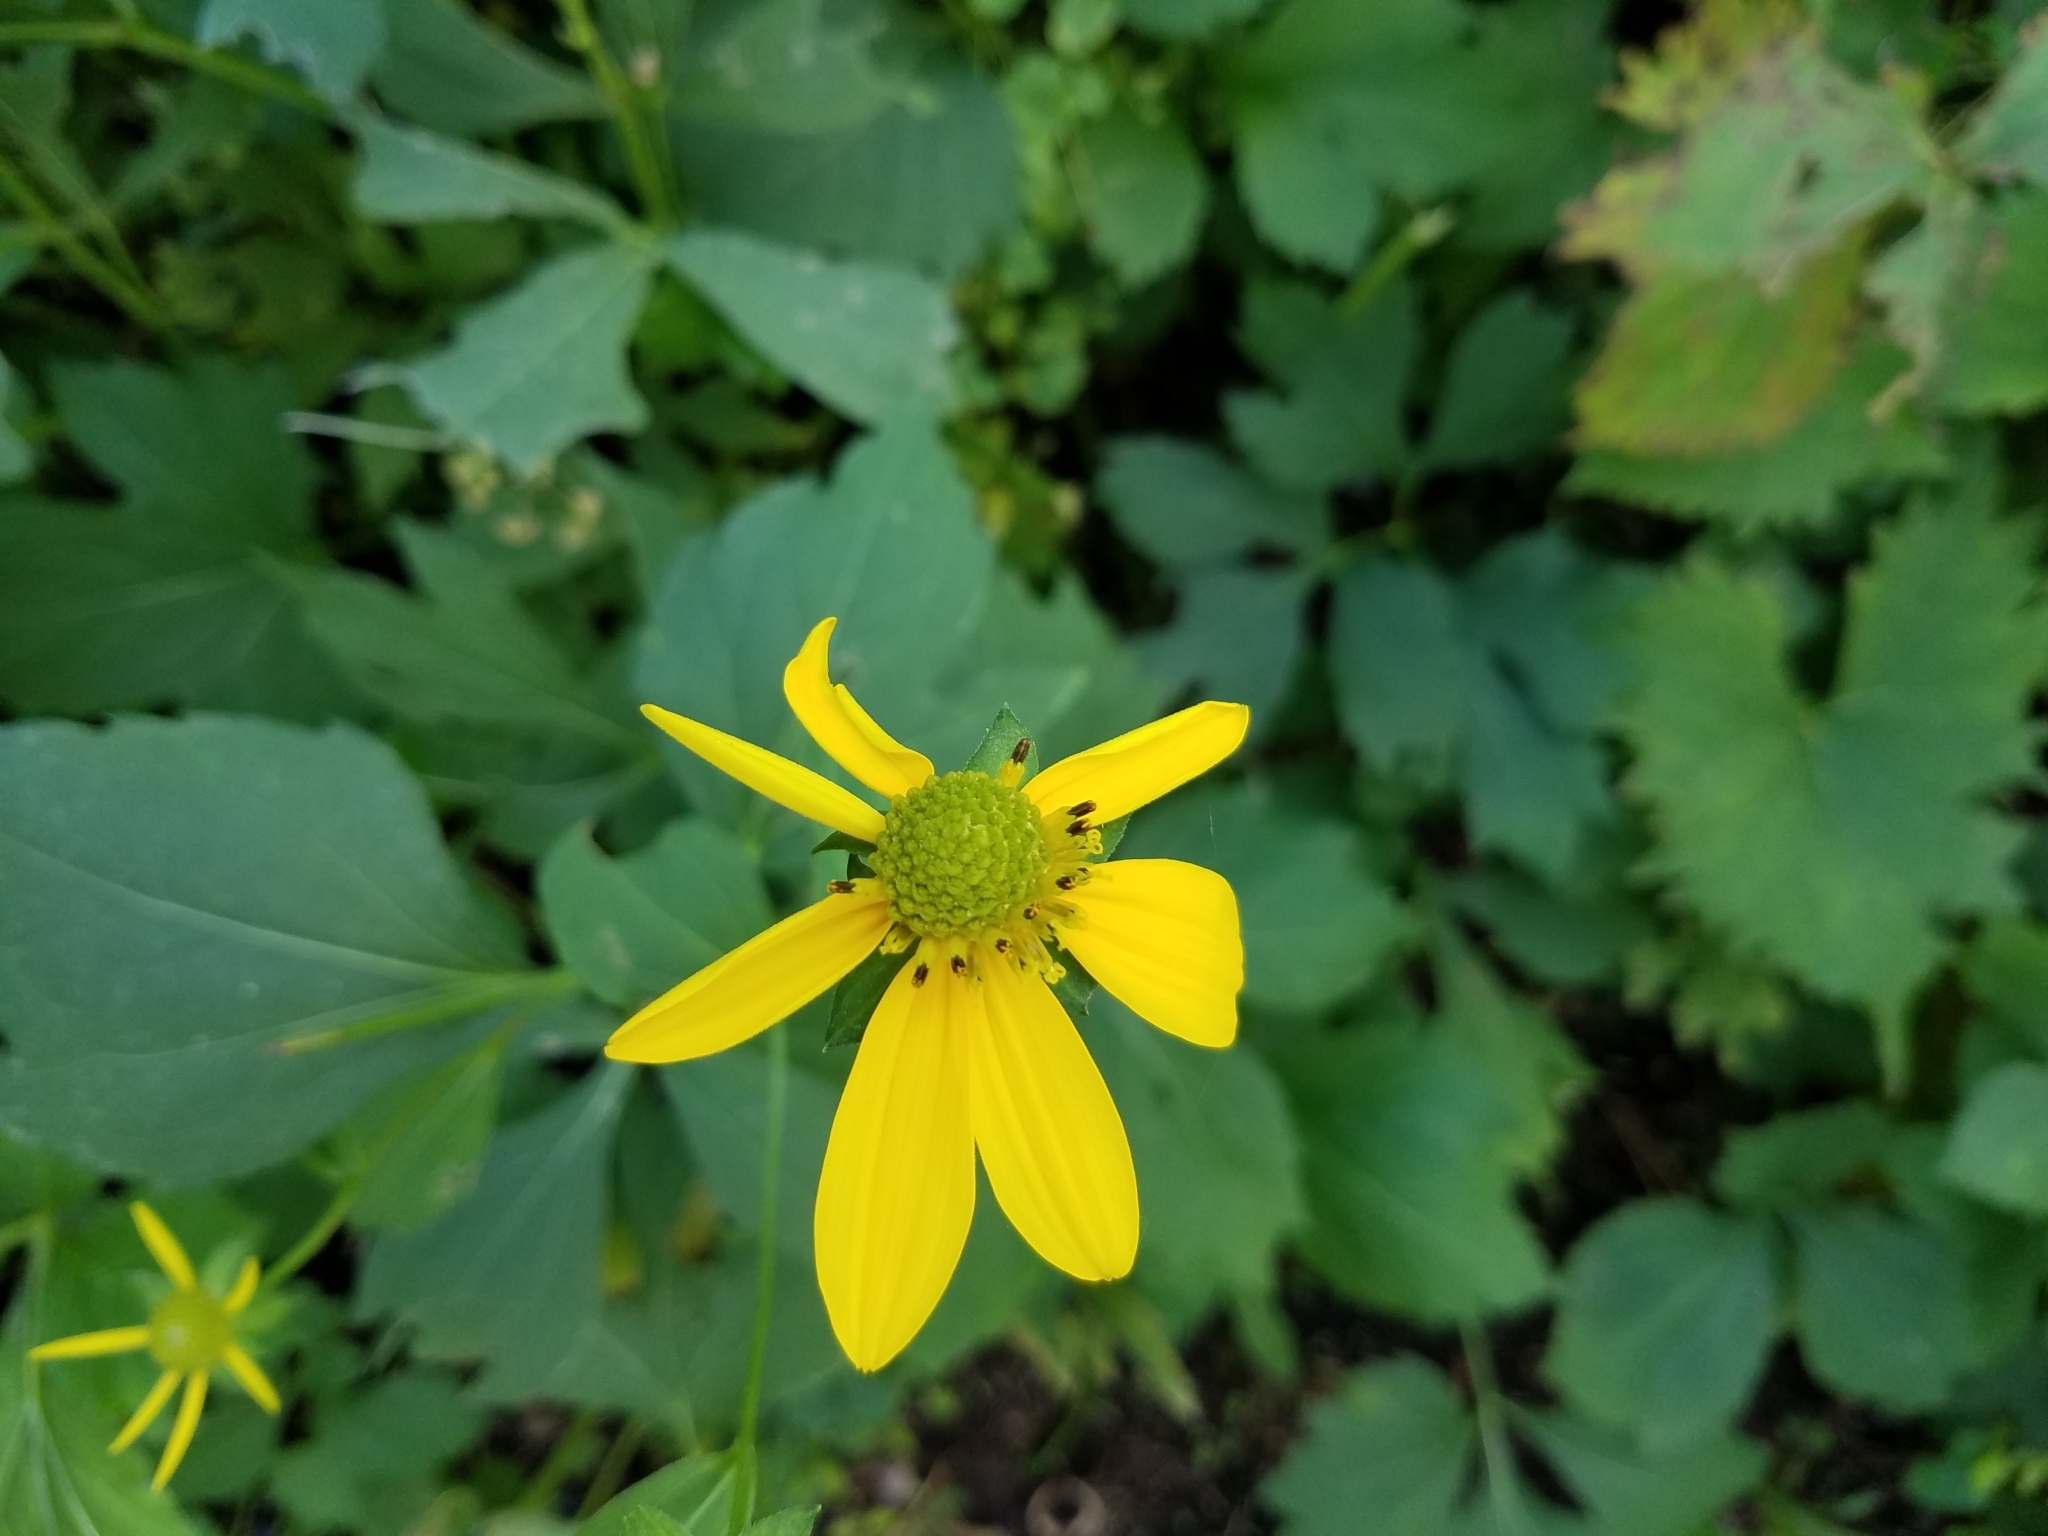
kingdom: Plantae
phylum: Tracheophyta
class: Magnoliopsida
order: Asterales
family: Asteraceae
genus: Rudbeckia
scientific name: Rudbeckia laciniata
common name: Coneflower
